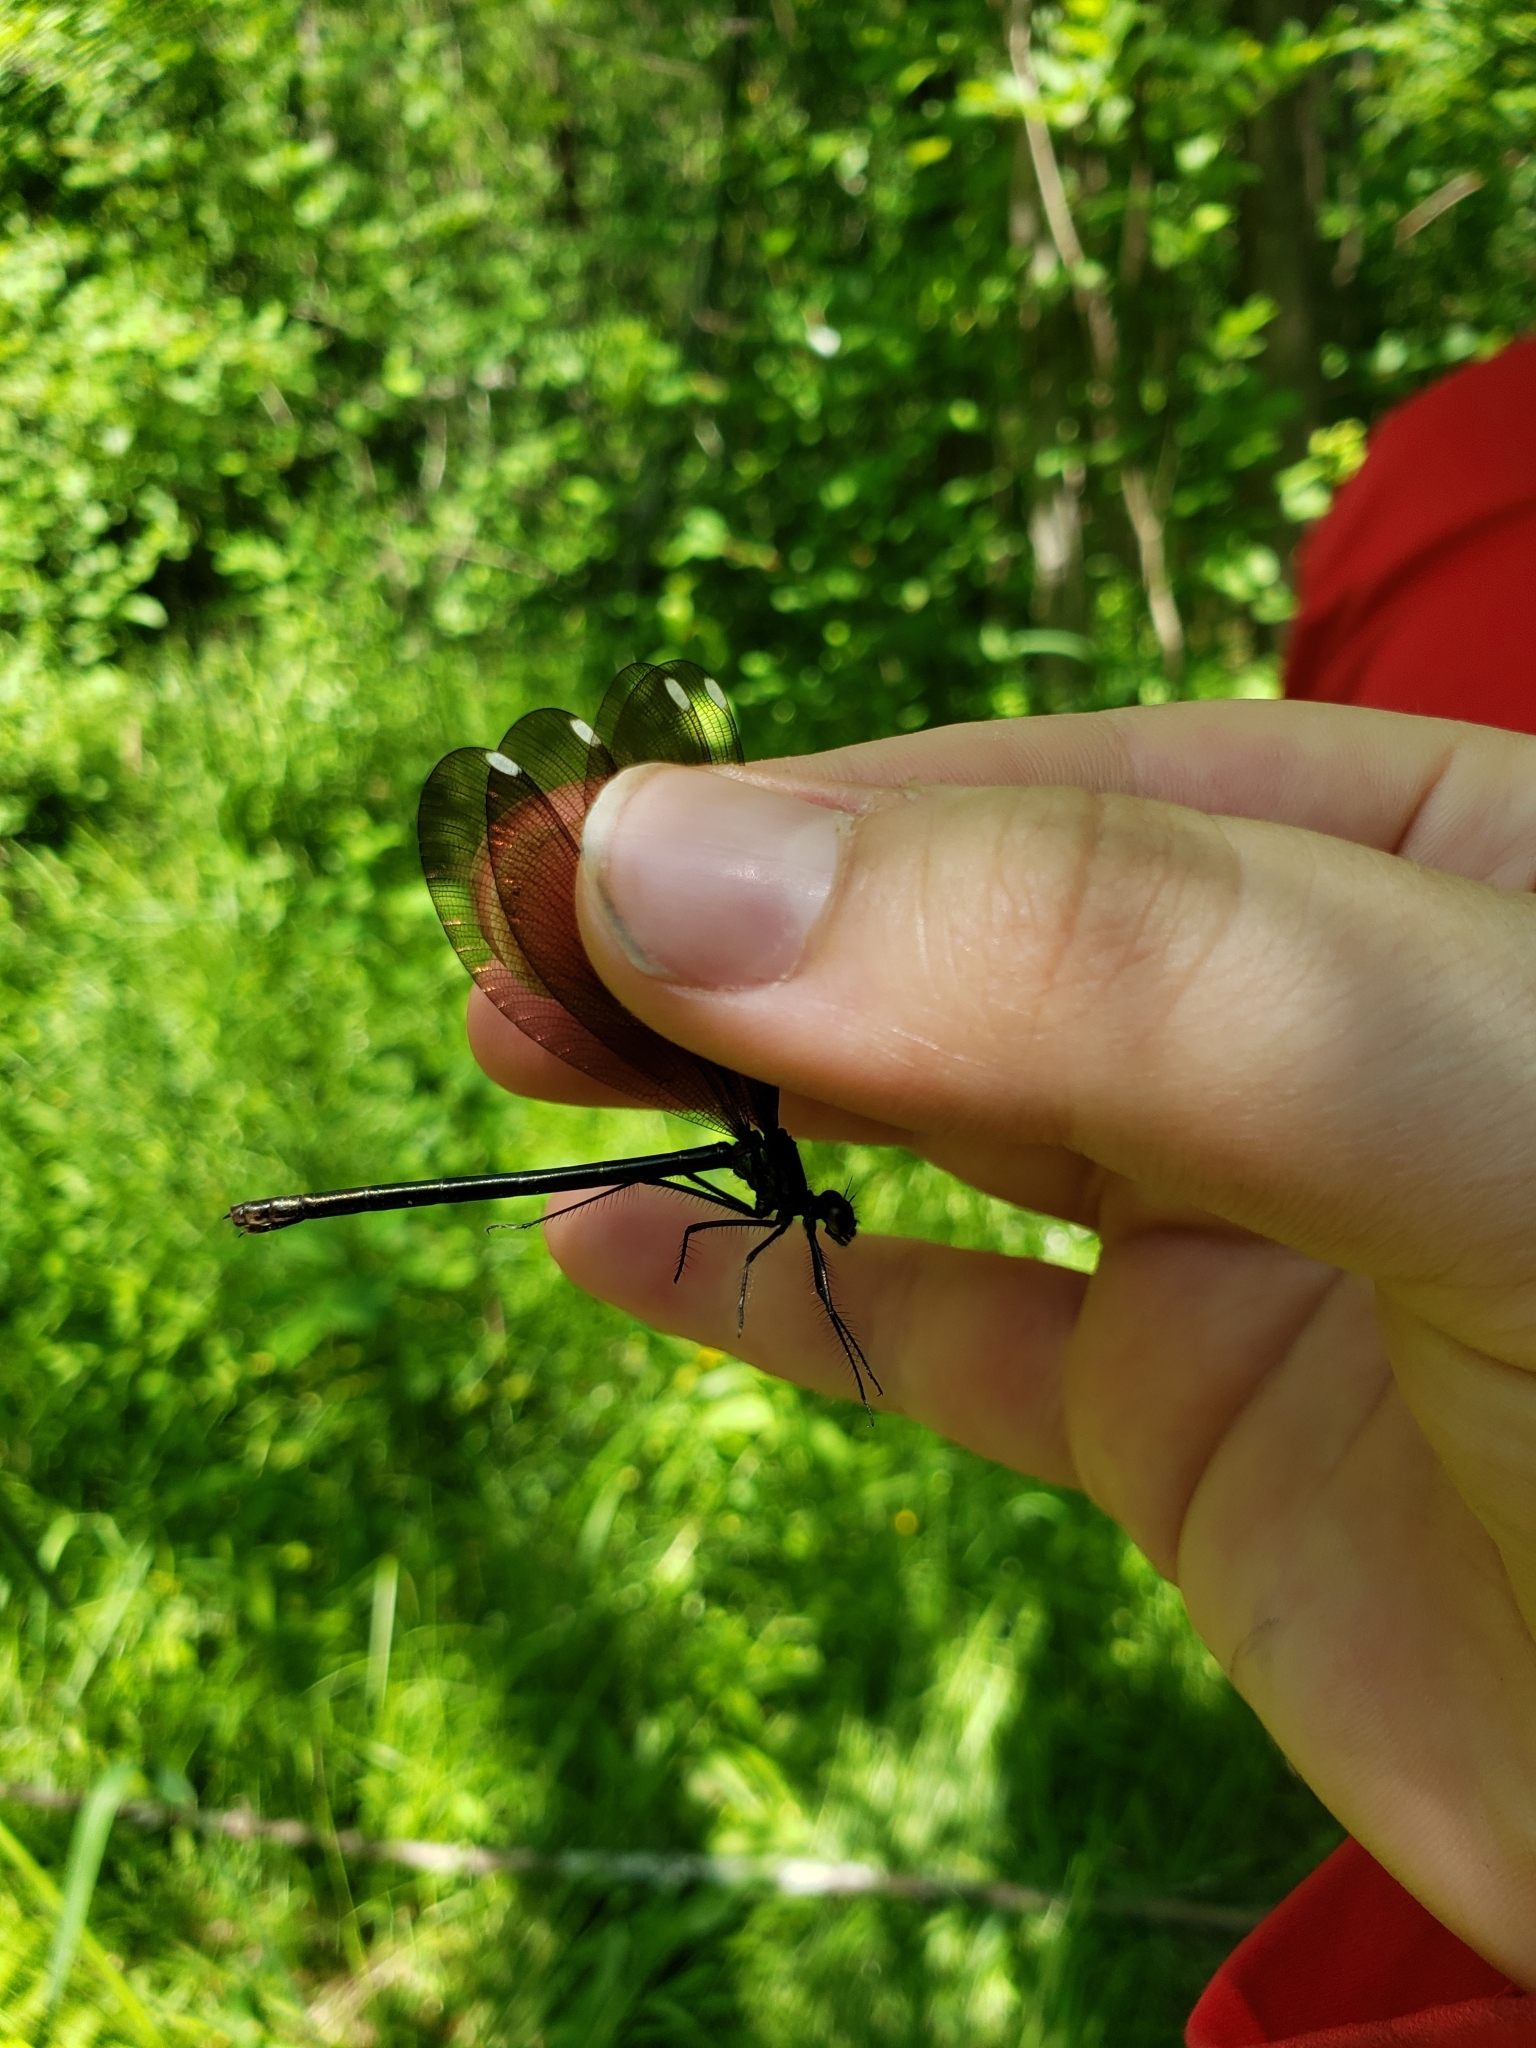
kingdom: Animalia
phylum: Arthropoda
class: Insecta
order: Odonata
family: Calopterygidae
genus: Calopteryx
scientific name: Calopteryx maculata
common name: Ebony jewelwing
